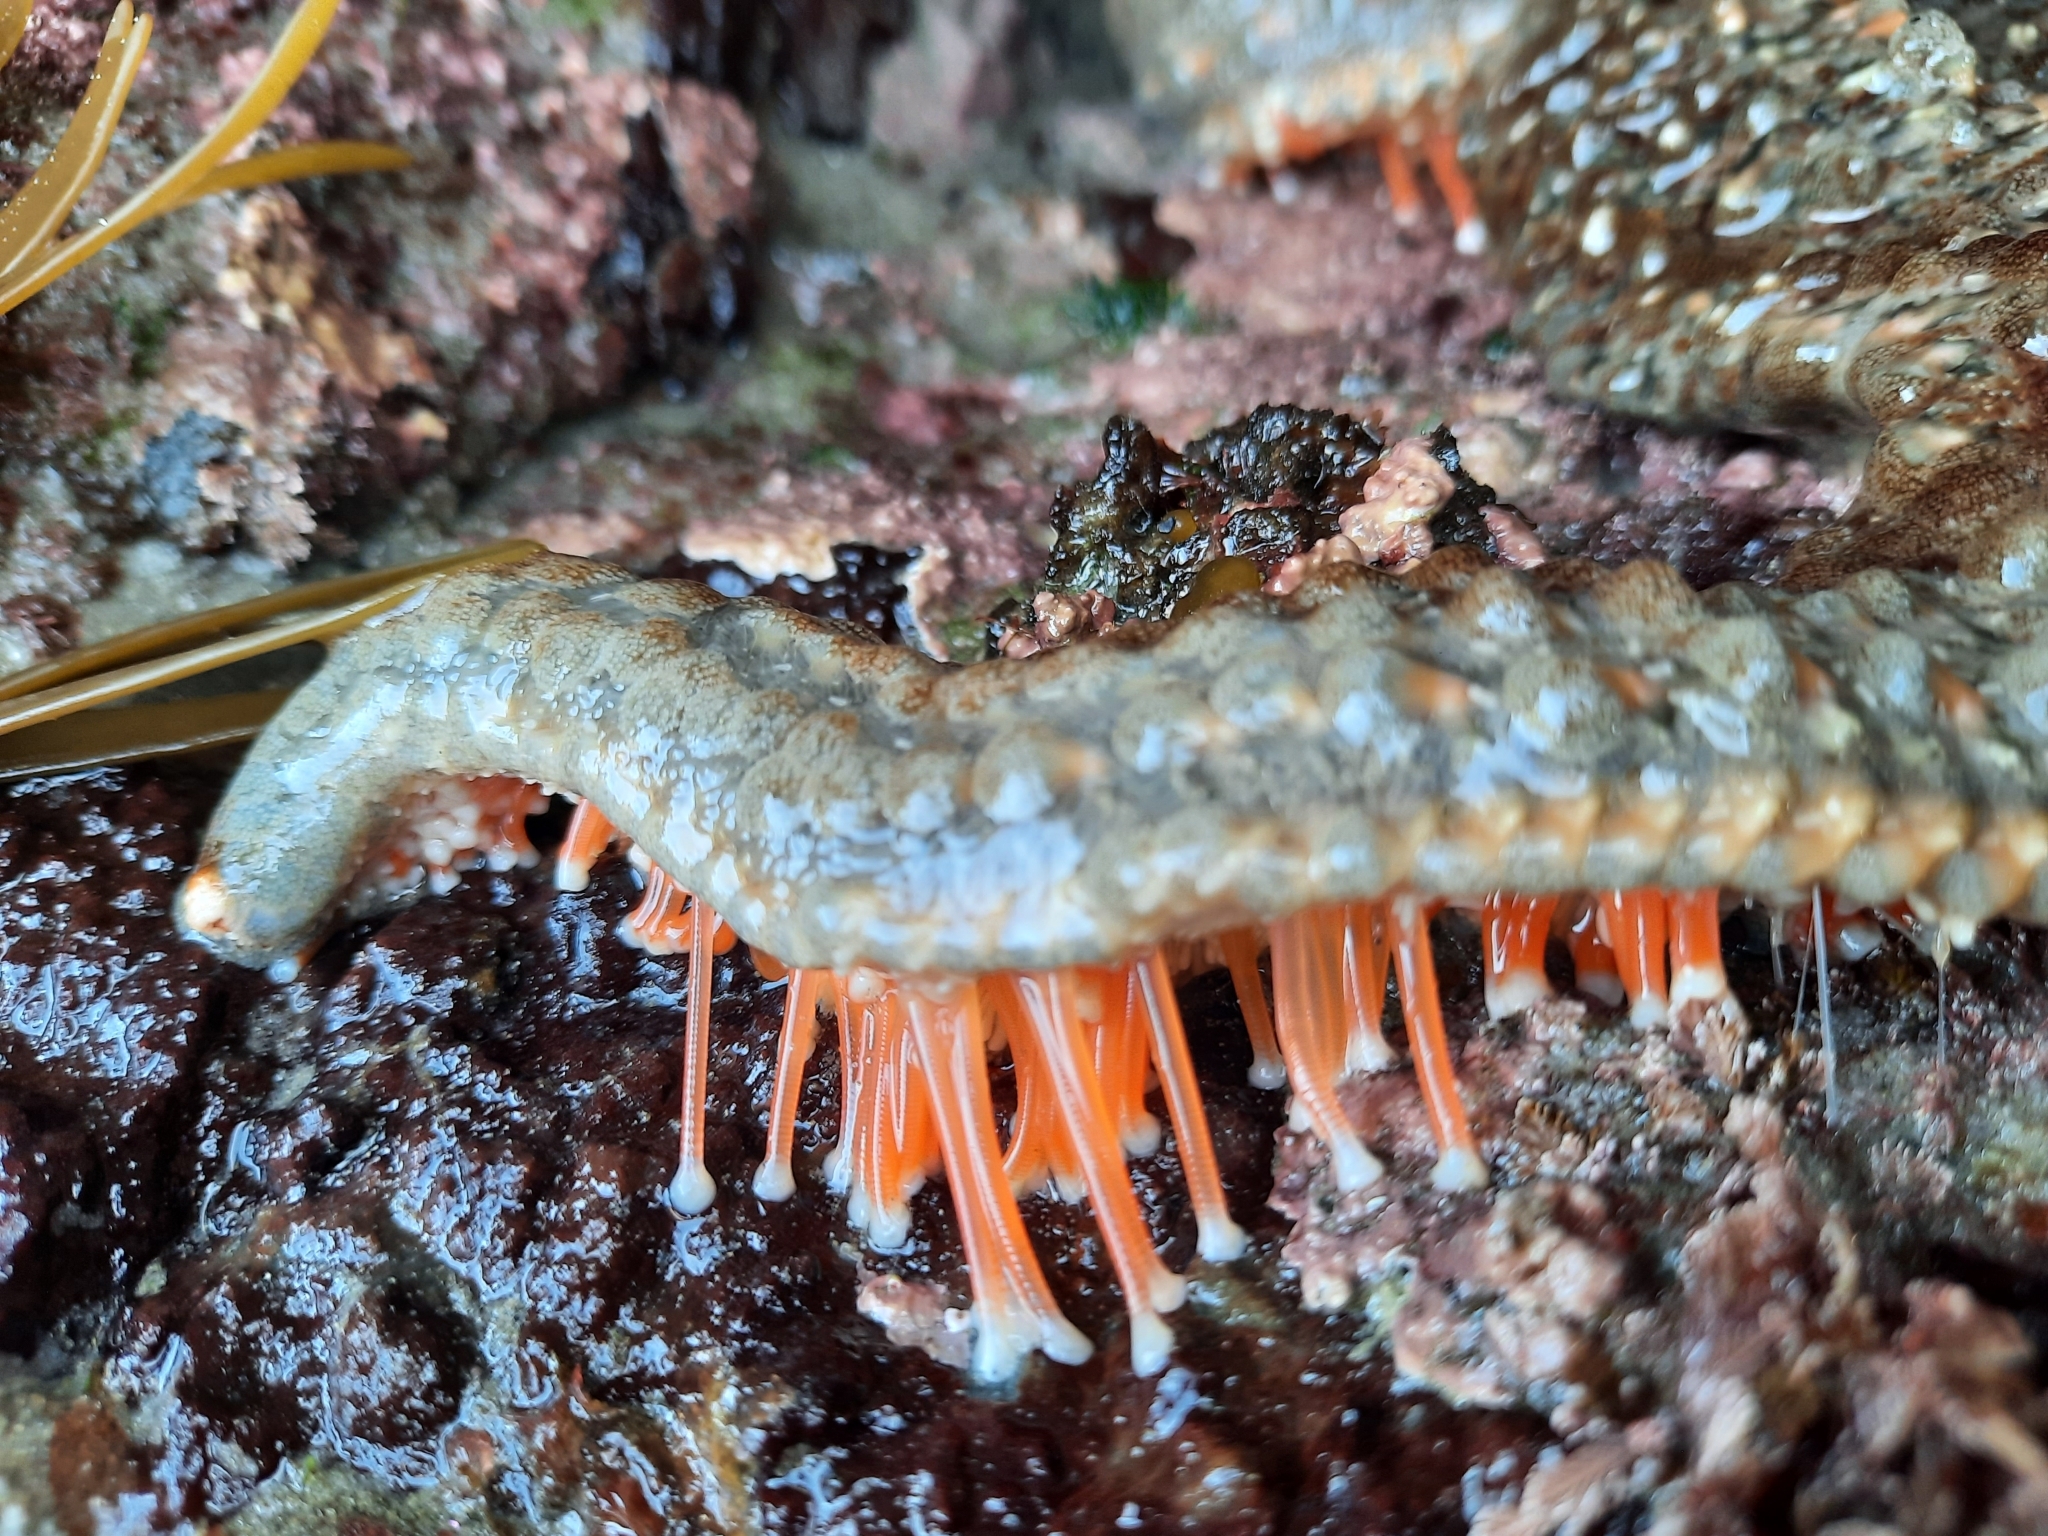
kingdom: Animalia
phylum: Echinodermata
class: Asteroidea
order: Forcipulatida
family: Asteriidae
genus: Astrostole
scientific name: Astrostole scabra
